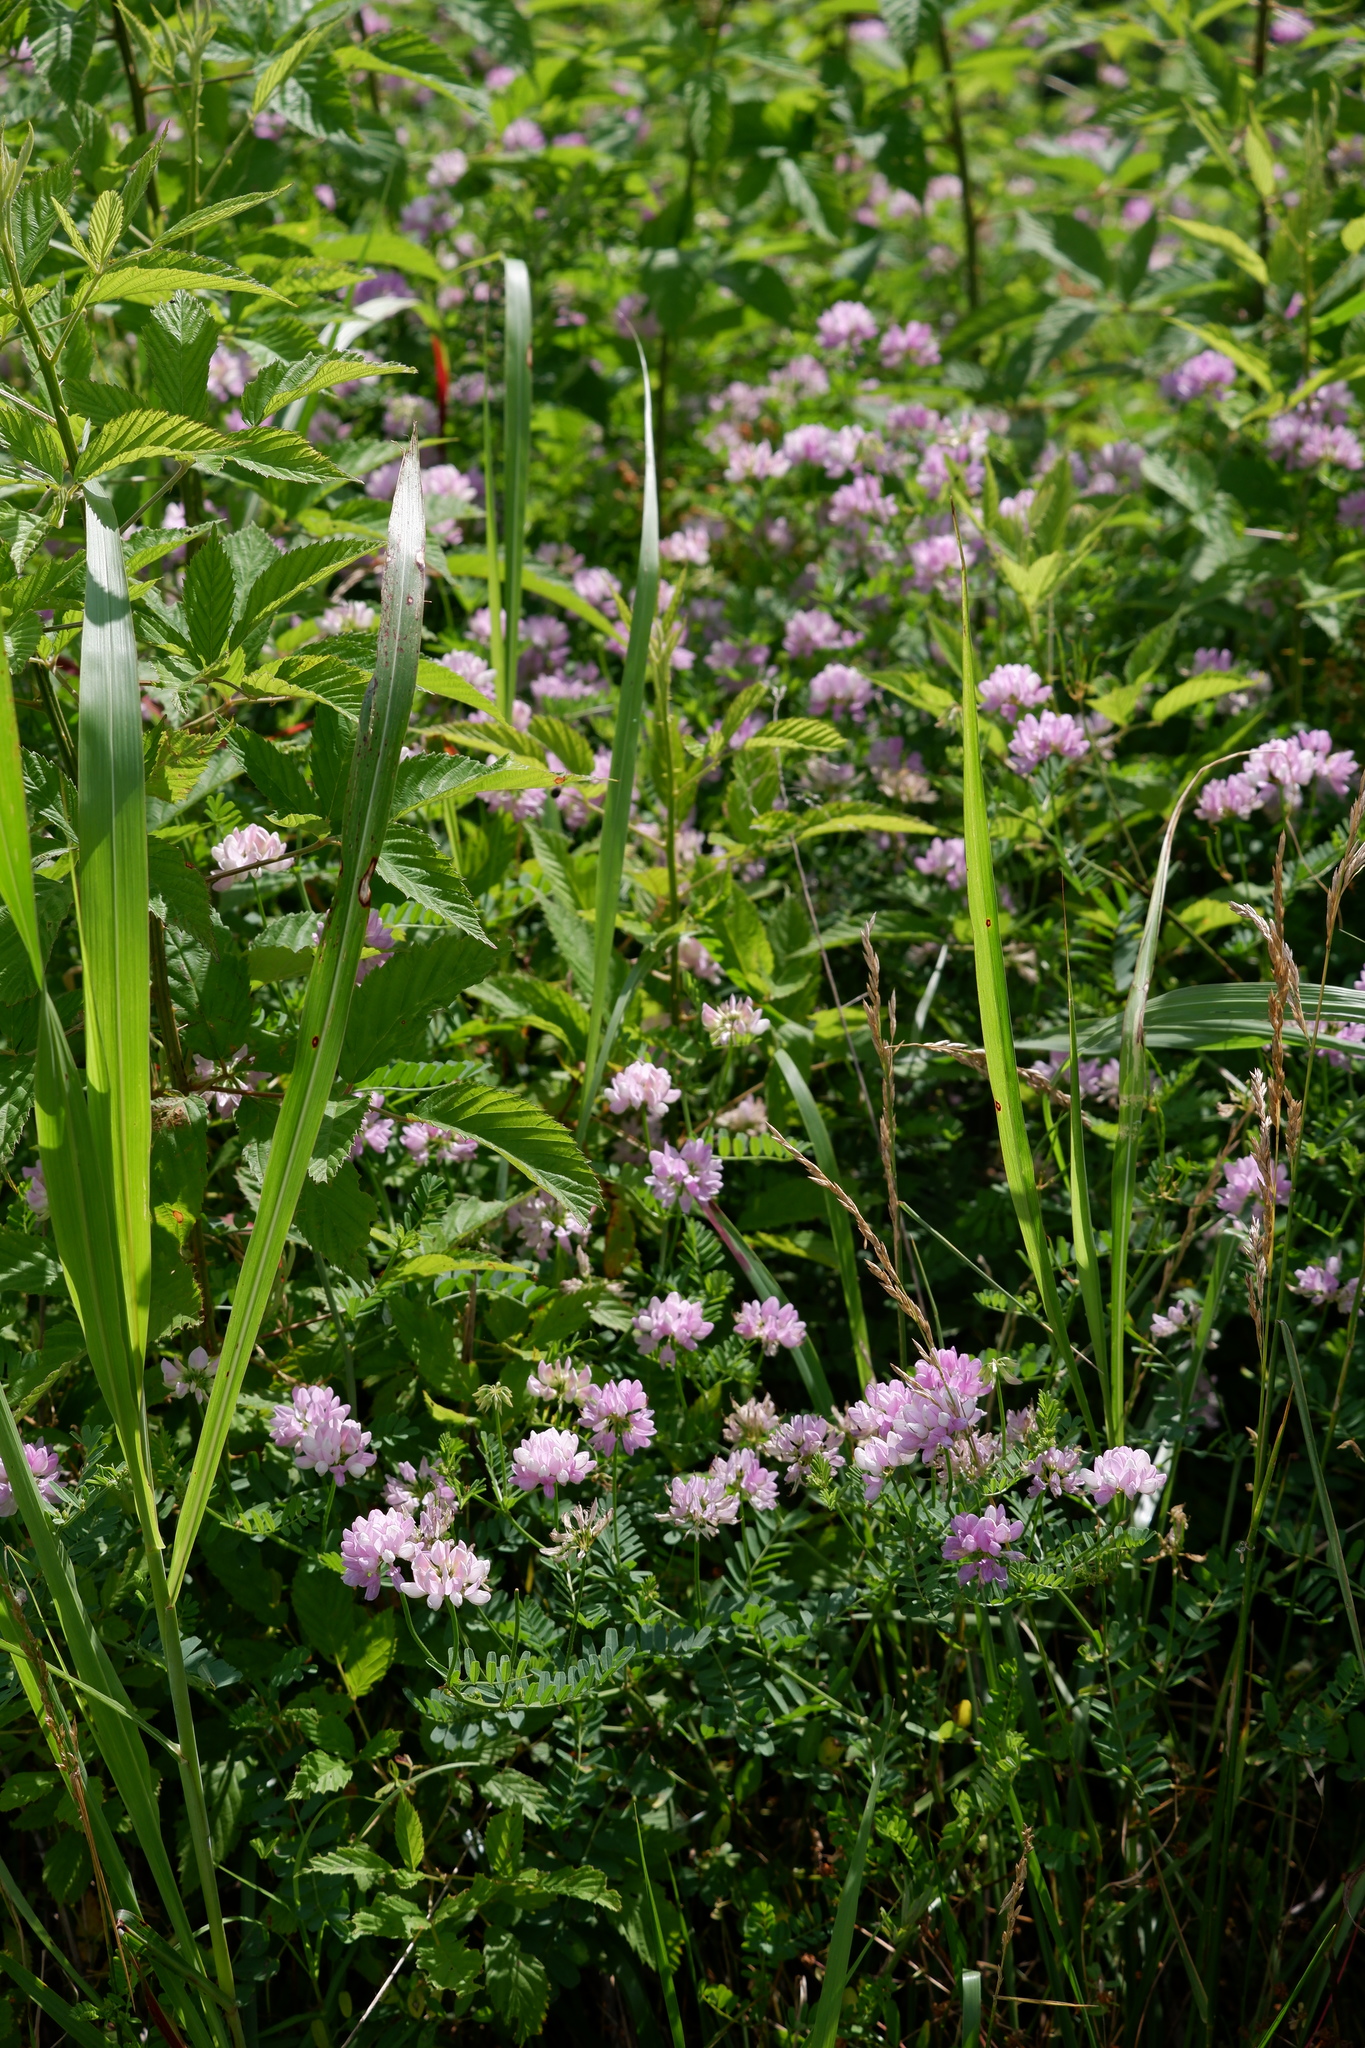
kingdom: Plantae
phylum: Tracheophyta
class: Magnoliopsida
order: Fabales
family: Fabaceae
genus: Coronilla
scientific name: Coronilla varia
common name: Crownvetch
